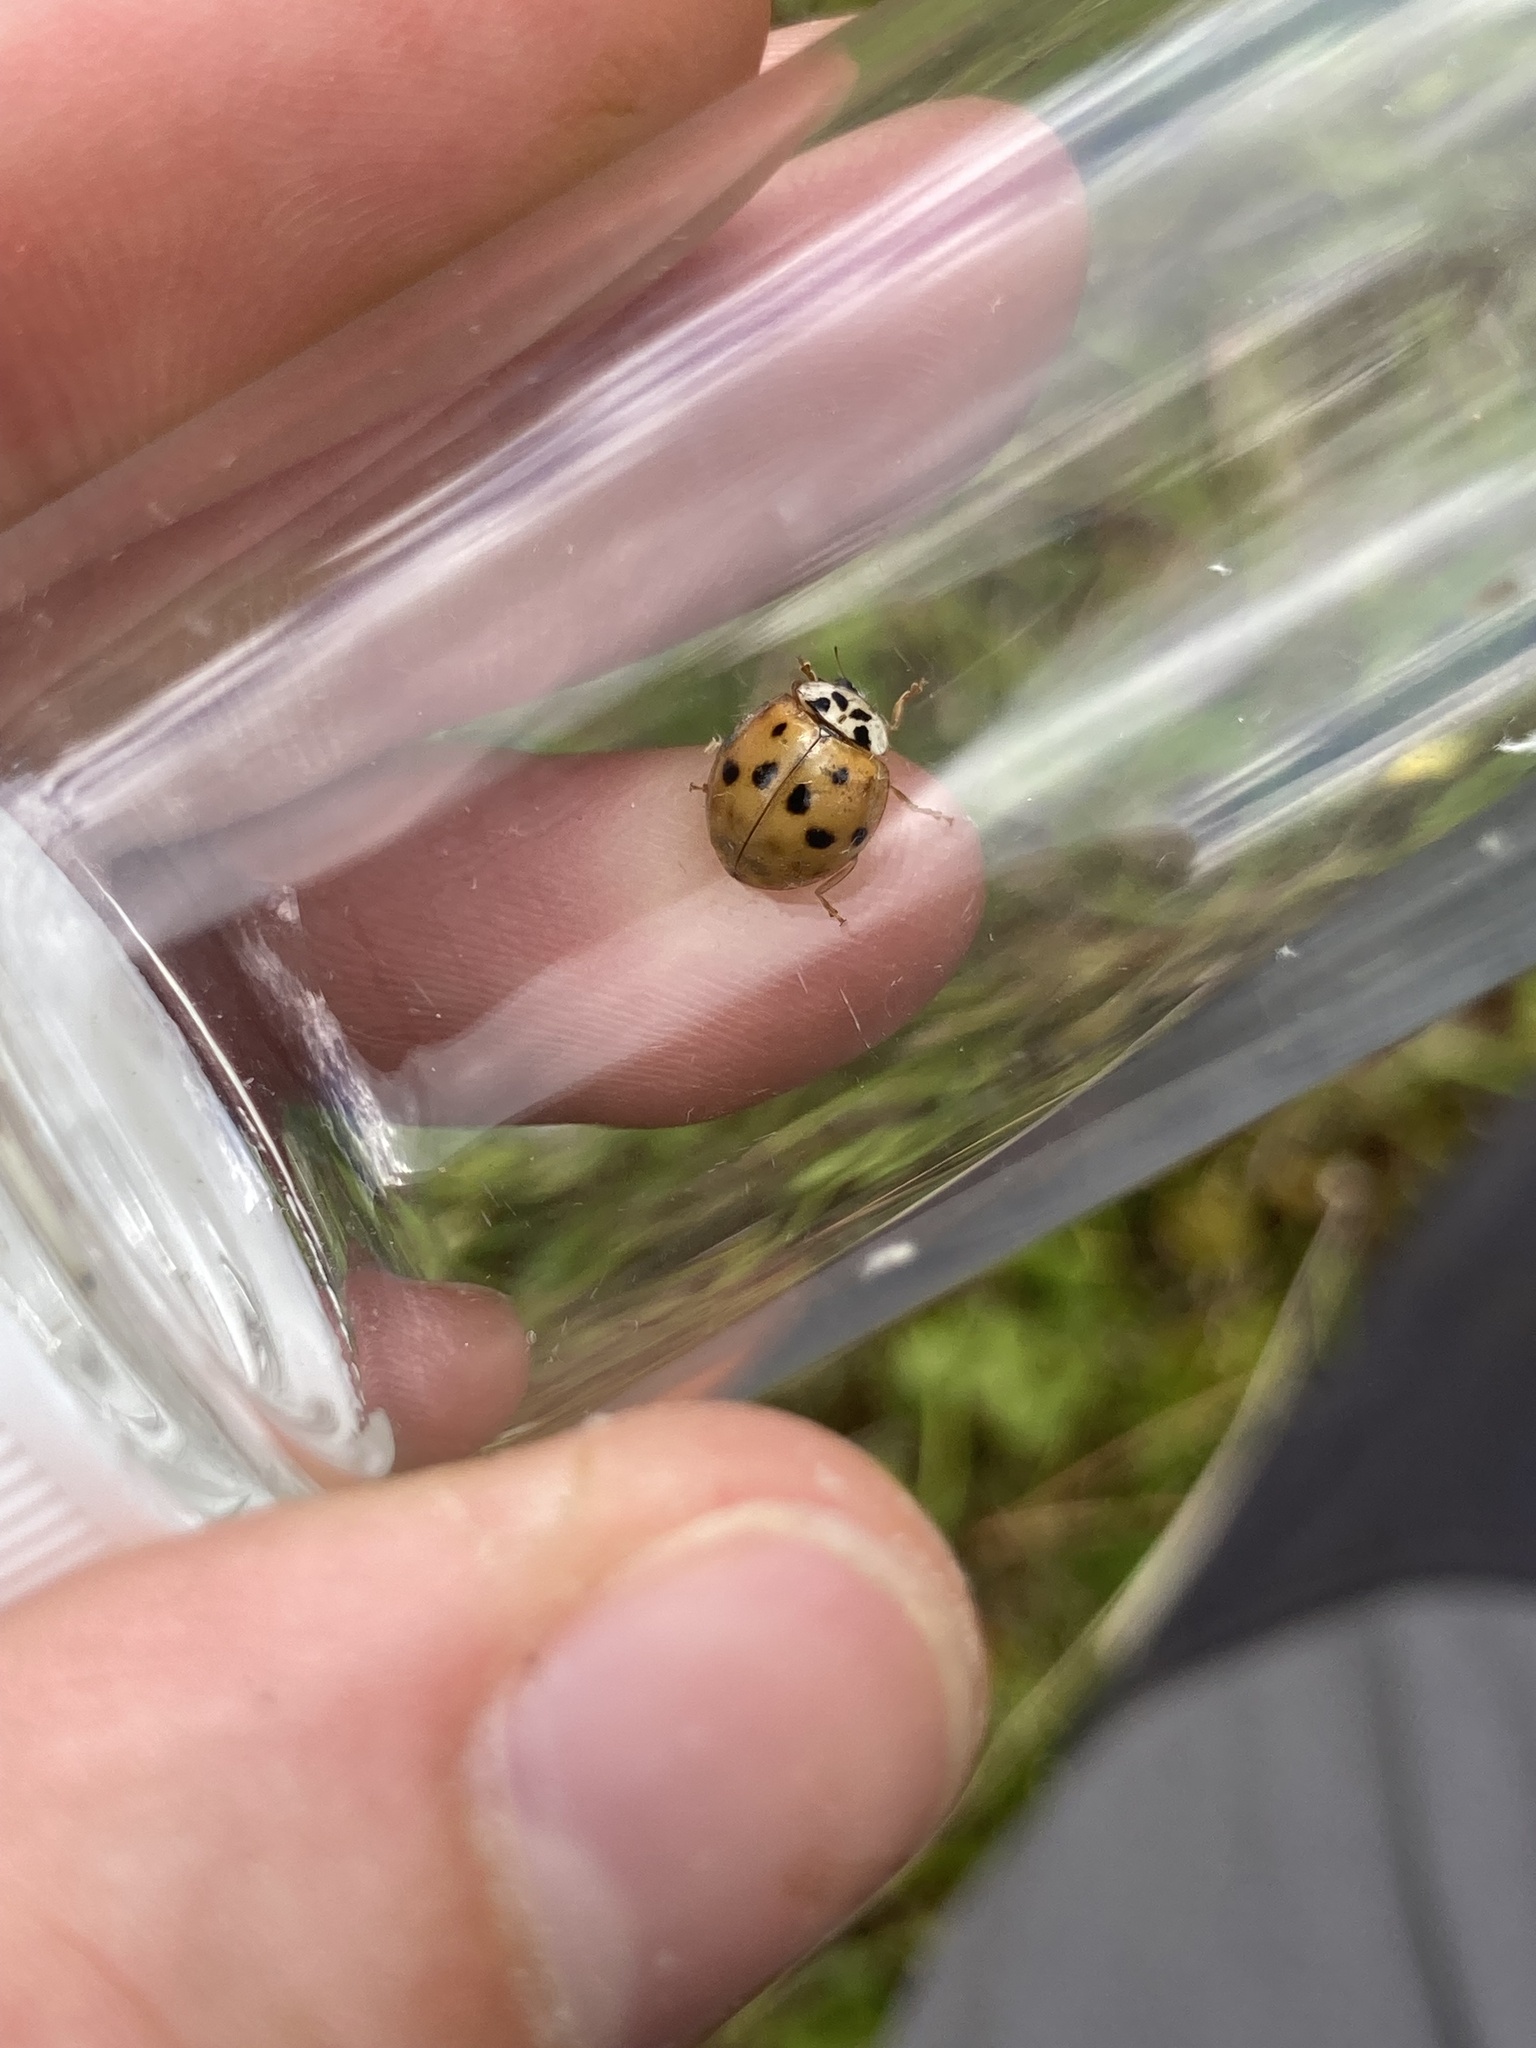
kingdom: Animalia
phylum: Arthropoda
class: Insecta
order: Coleoptera
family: Coccinellidae
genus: Harmonia
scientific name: Harmonia axyridis
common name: Harlequin ladybird
